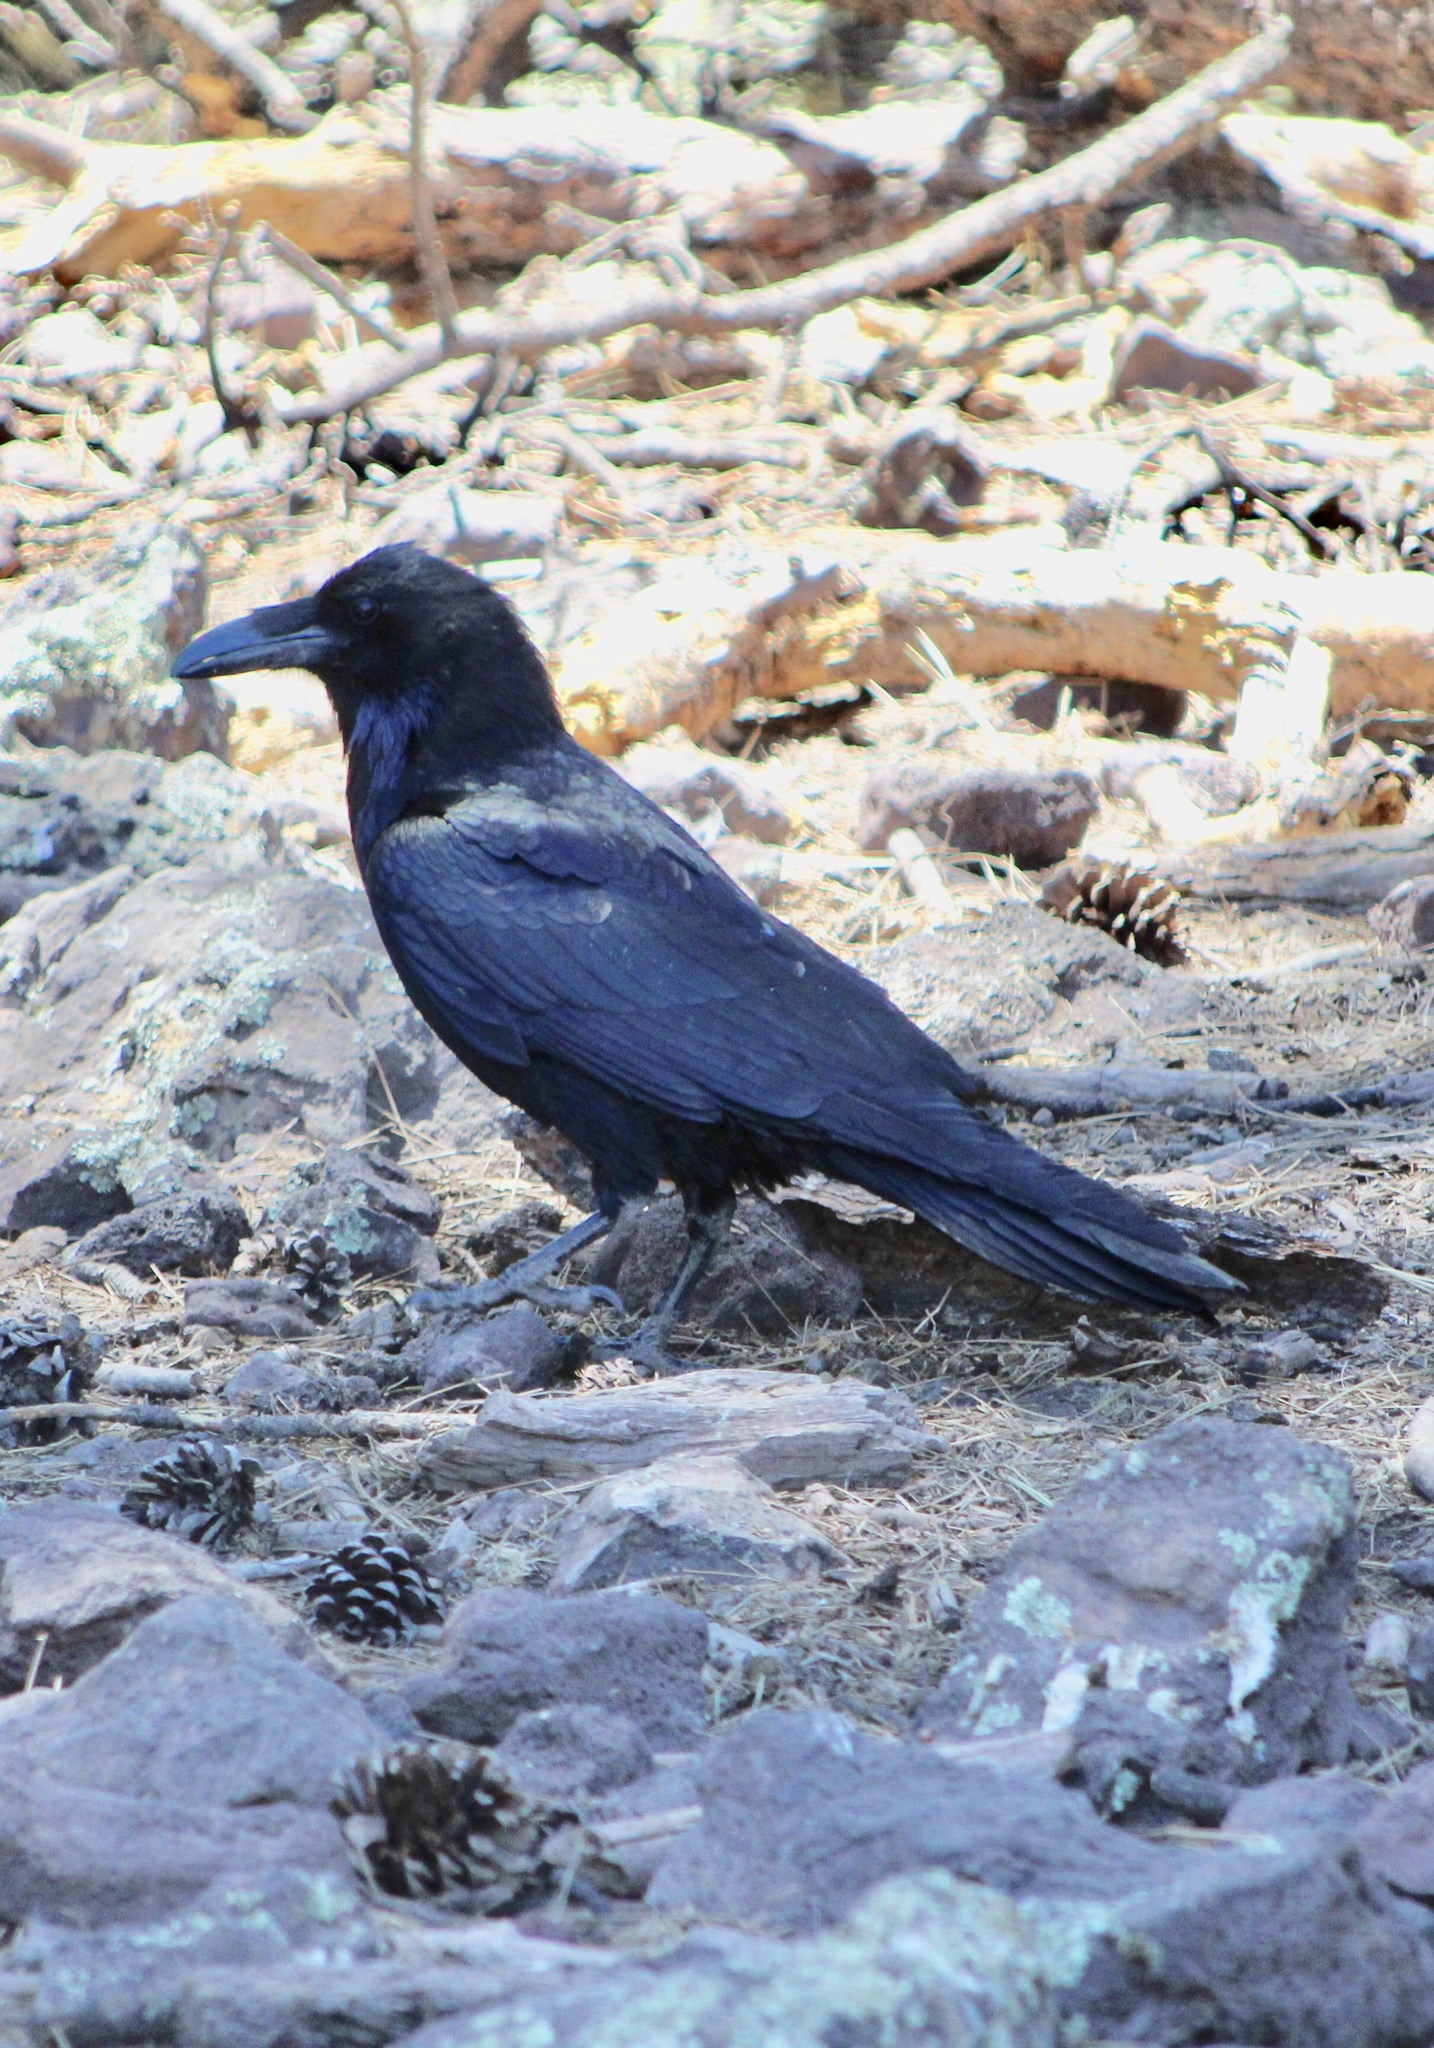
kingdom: Animalia
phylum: Chordata
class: Aves
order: Passeriformes
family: Corvidae
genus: Corvus
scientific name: Corvus corax
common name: Common raven
